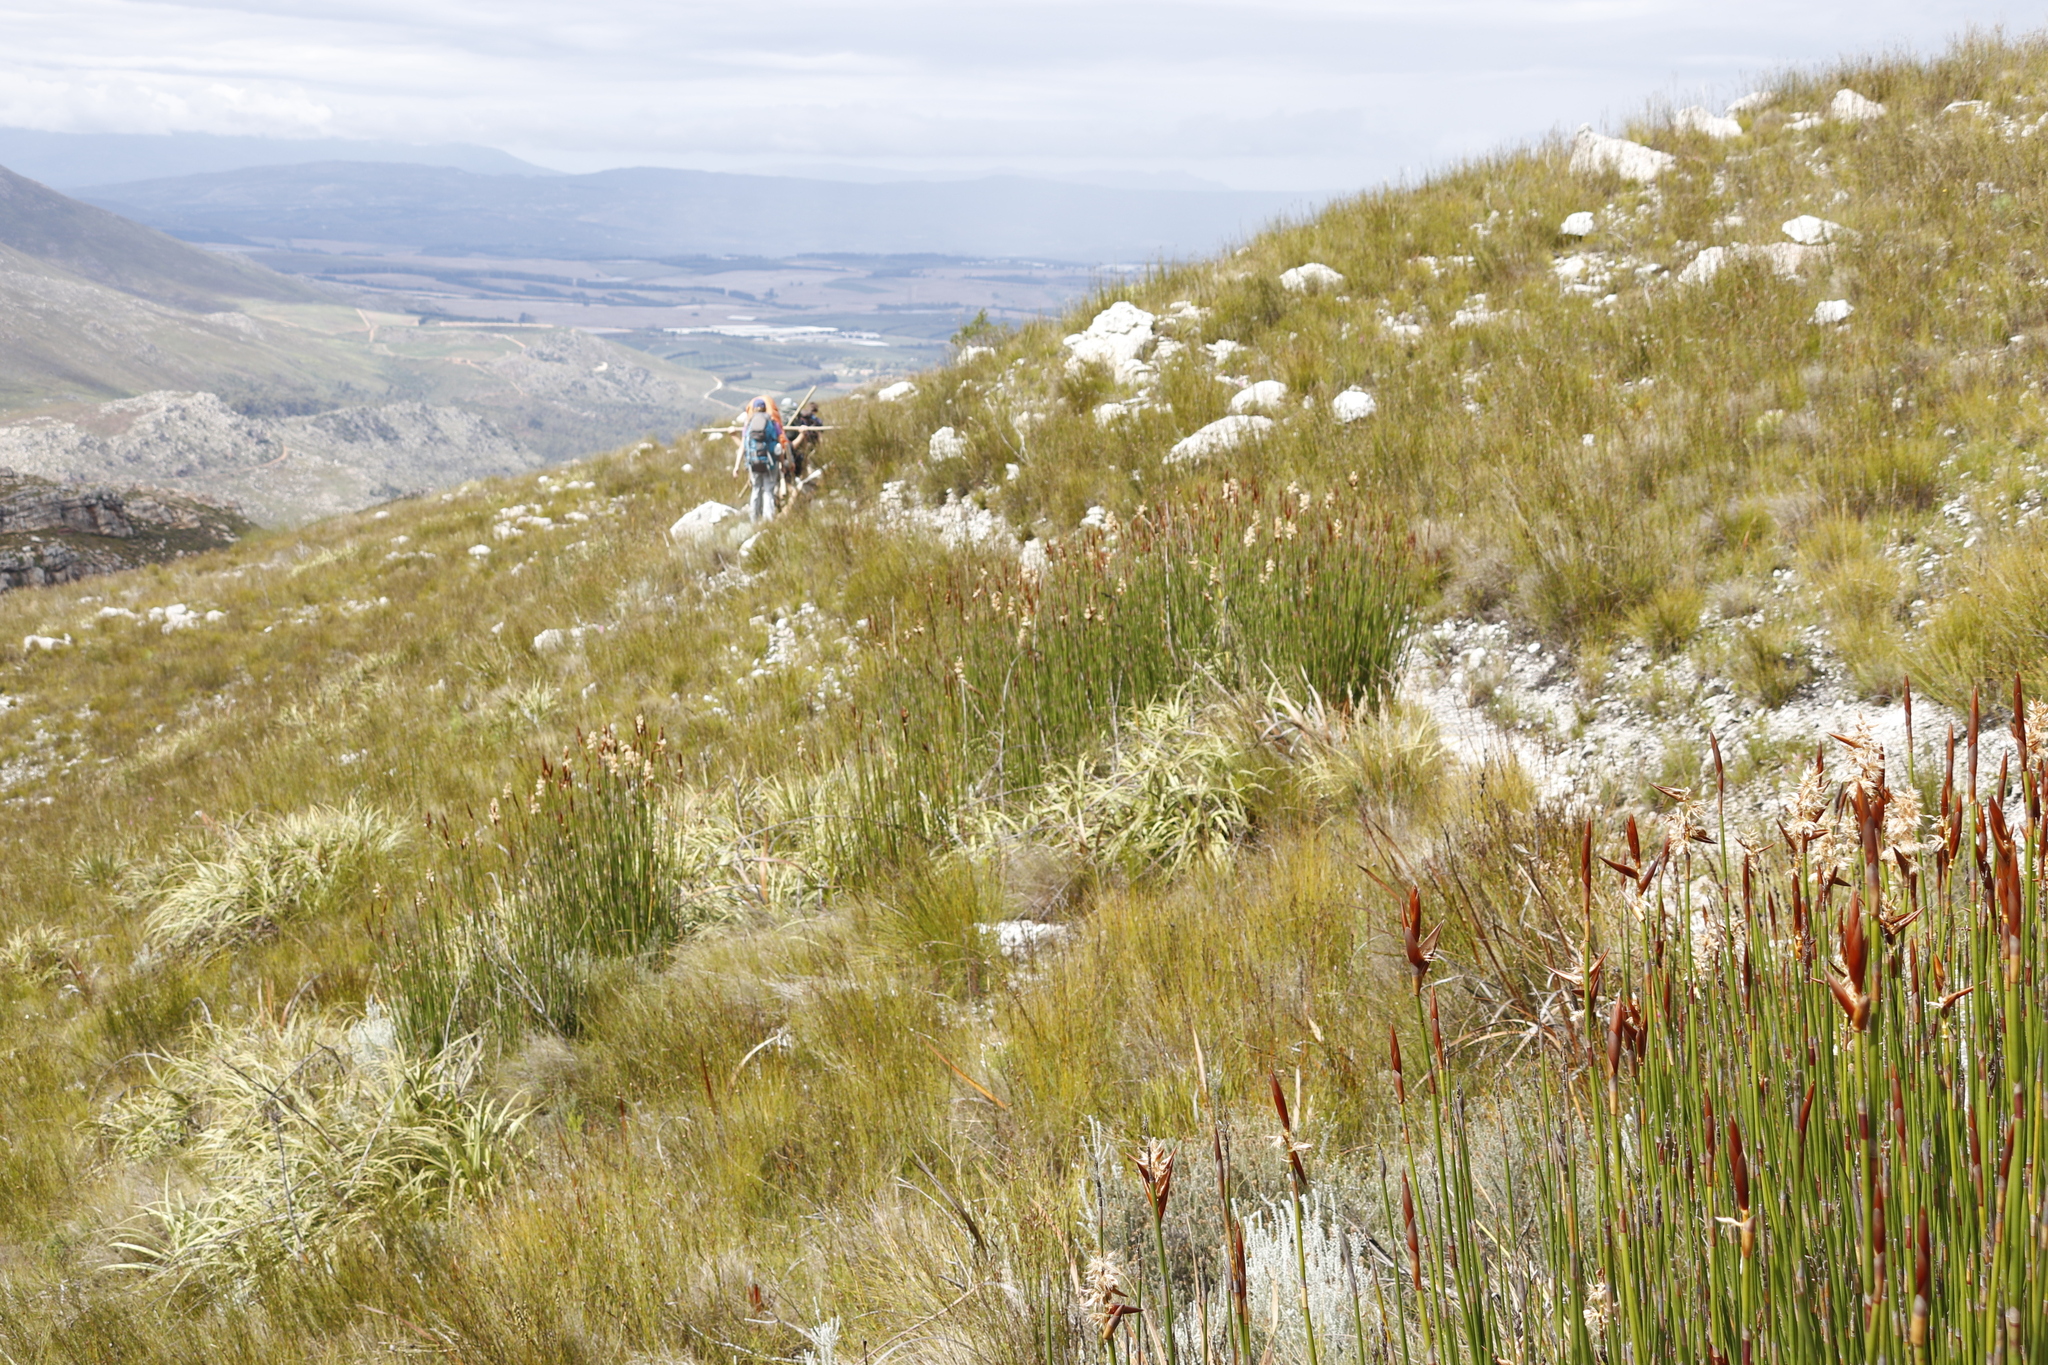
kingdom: Plantae
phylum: Tracheophyta
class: Liliopsida
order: Poales
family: Cyperaceae
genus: Tetraria
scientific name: Tetraria thermalis
